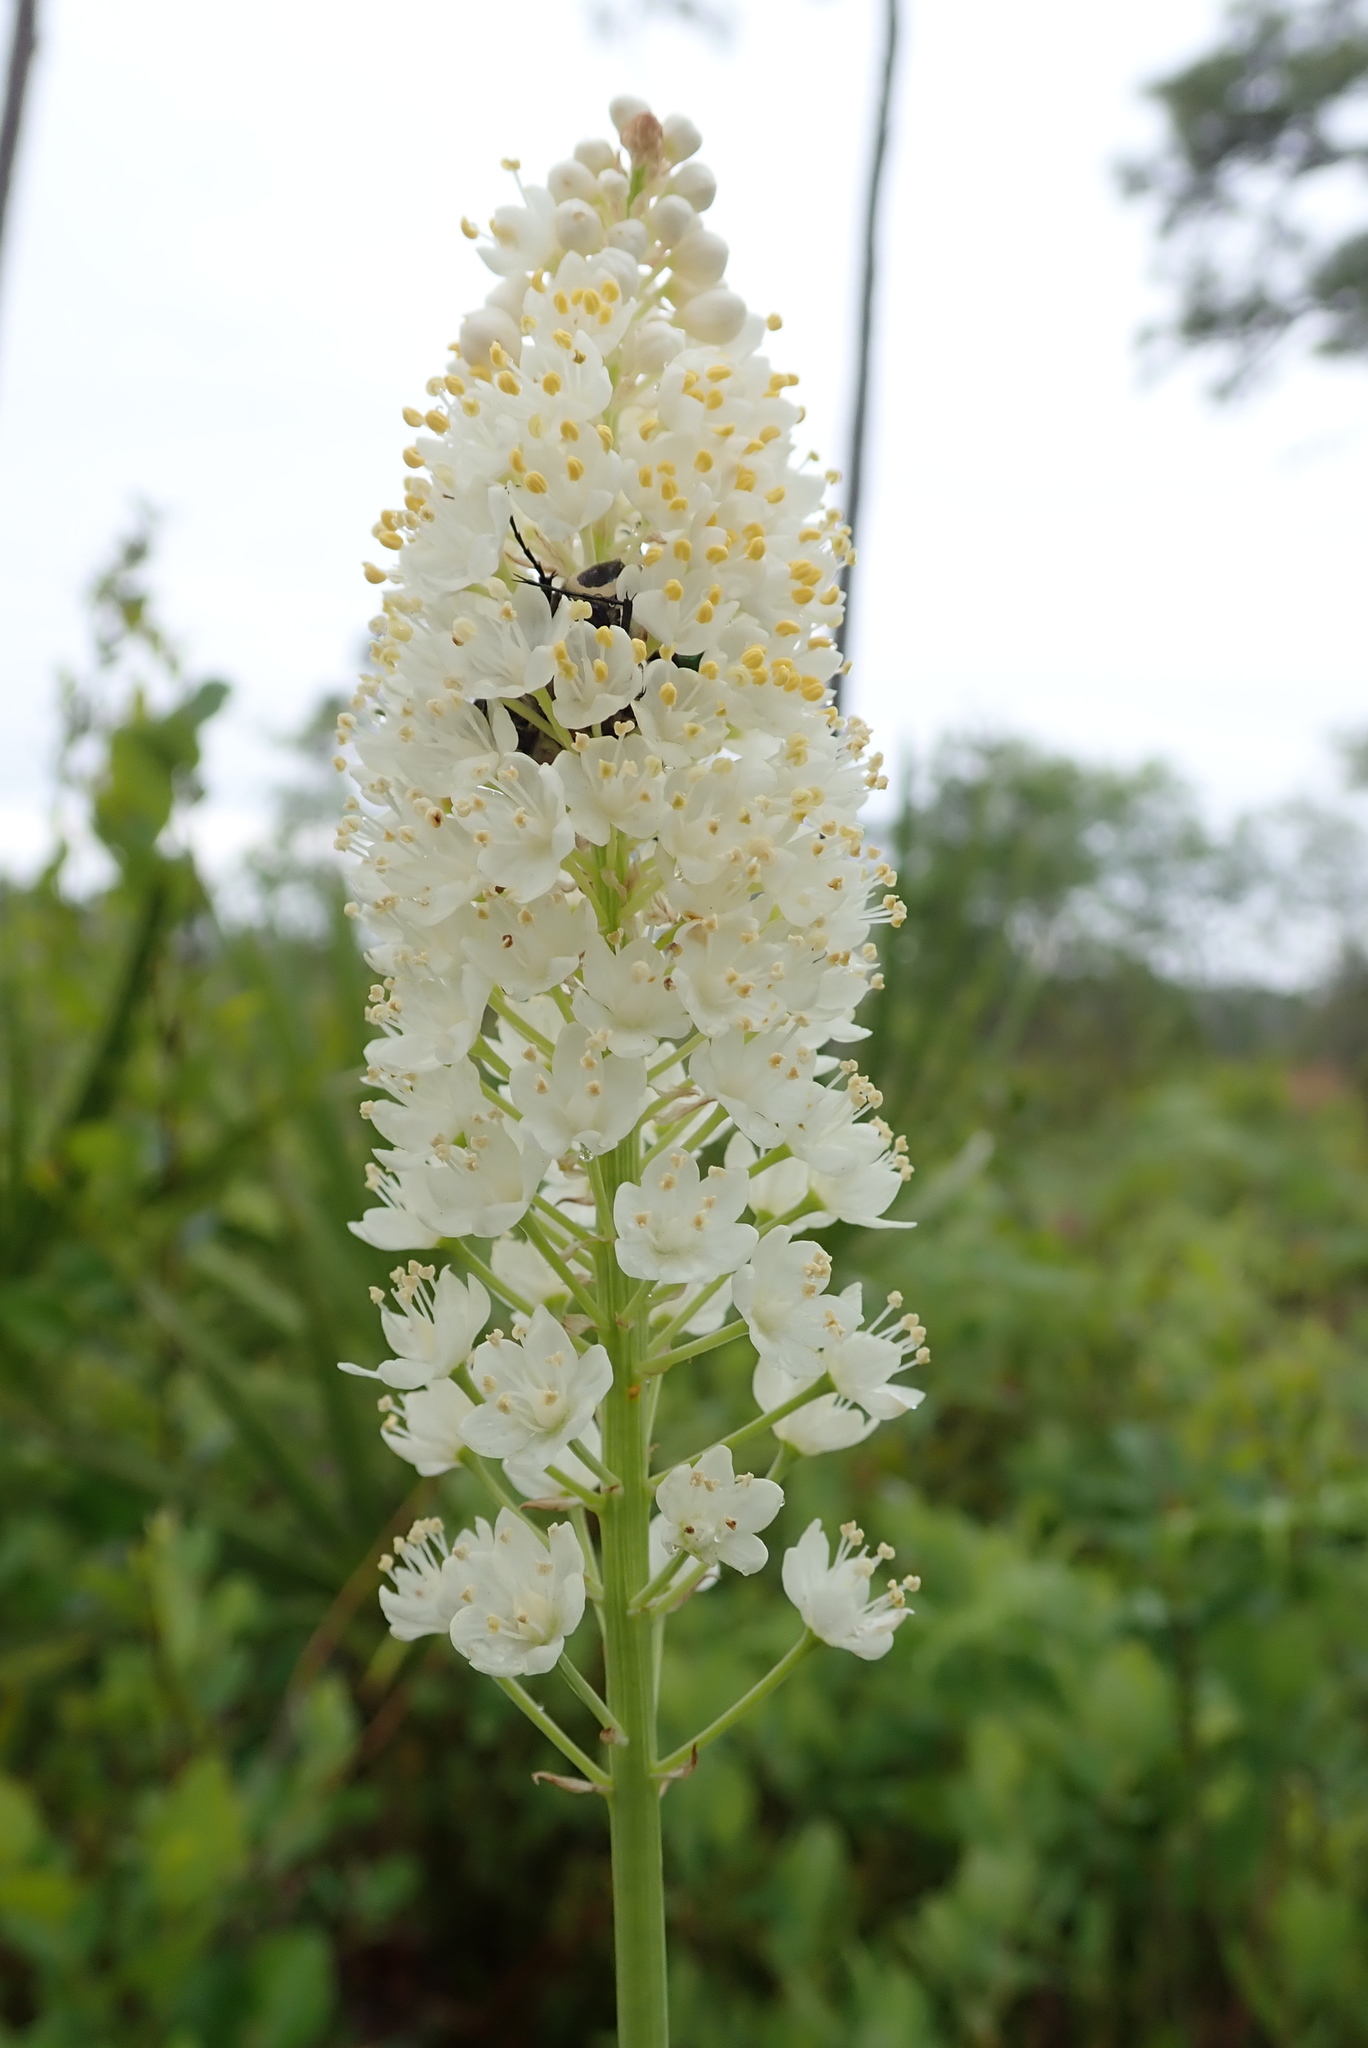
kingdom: Plantae
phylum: Tracheophyta
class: Liliopsida
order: Liliales
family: Melanthiaceae
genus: Stenanthium
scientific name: Stenanthium densum
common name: Crow-poison
